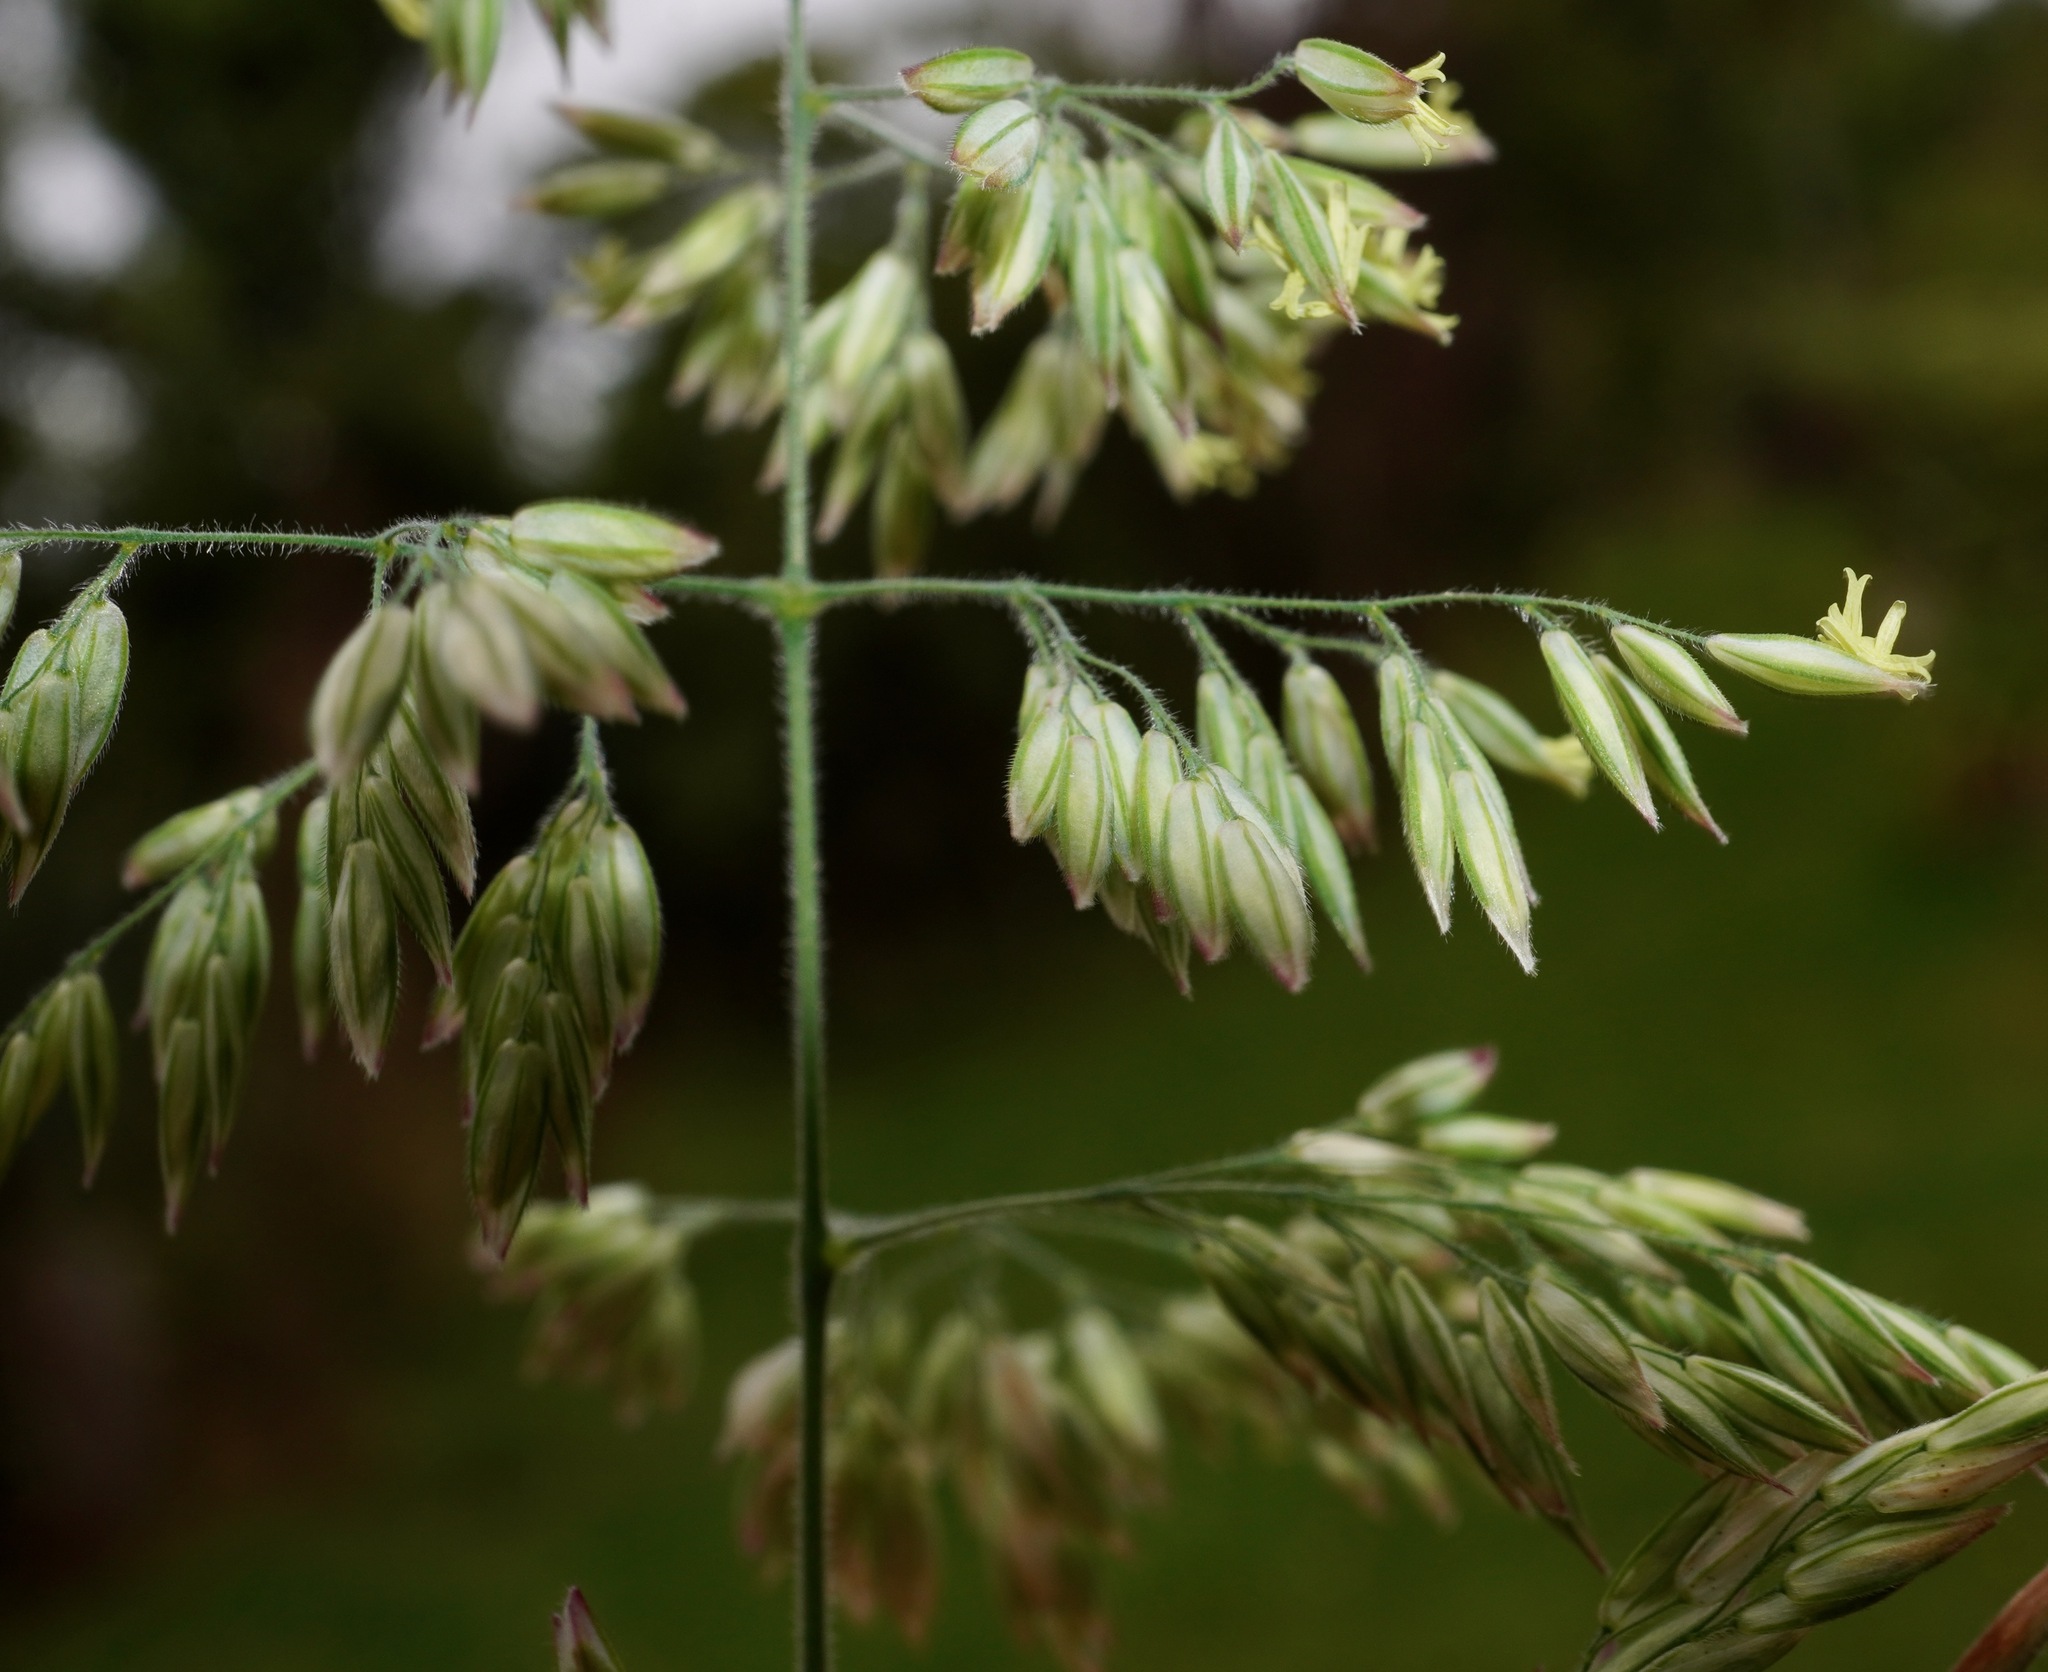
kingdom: Plantae
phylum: Tracheophyta
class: Liliopsida
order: Poales
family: Poaceae
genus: Holcus
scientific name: Holcus lanatus
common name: Yorkshire-fog
